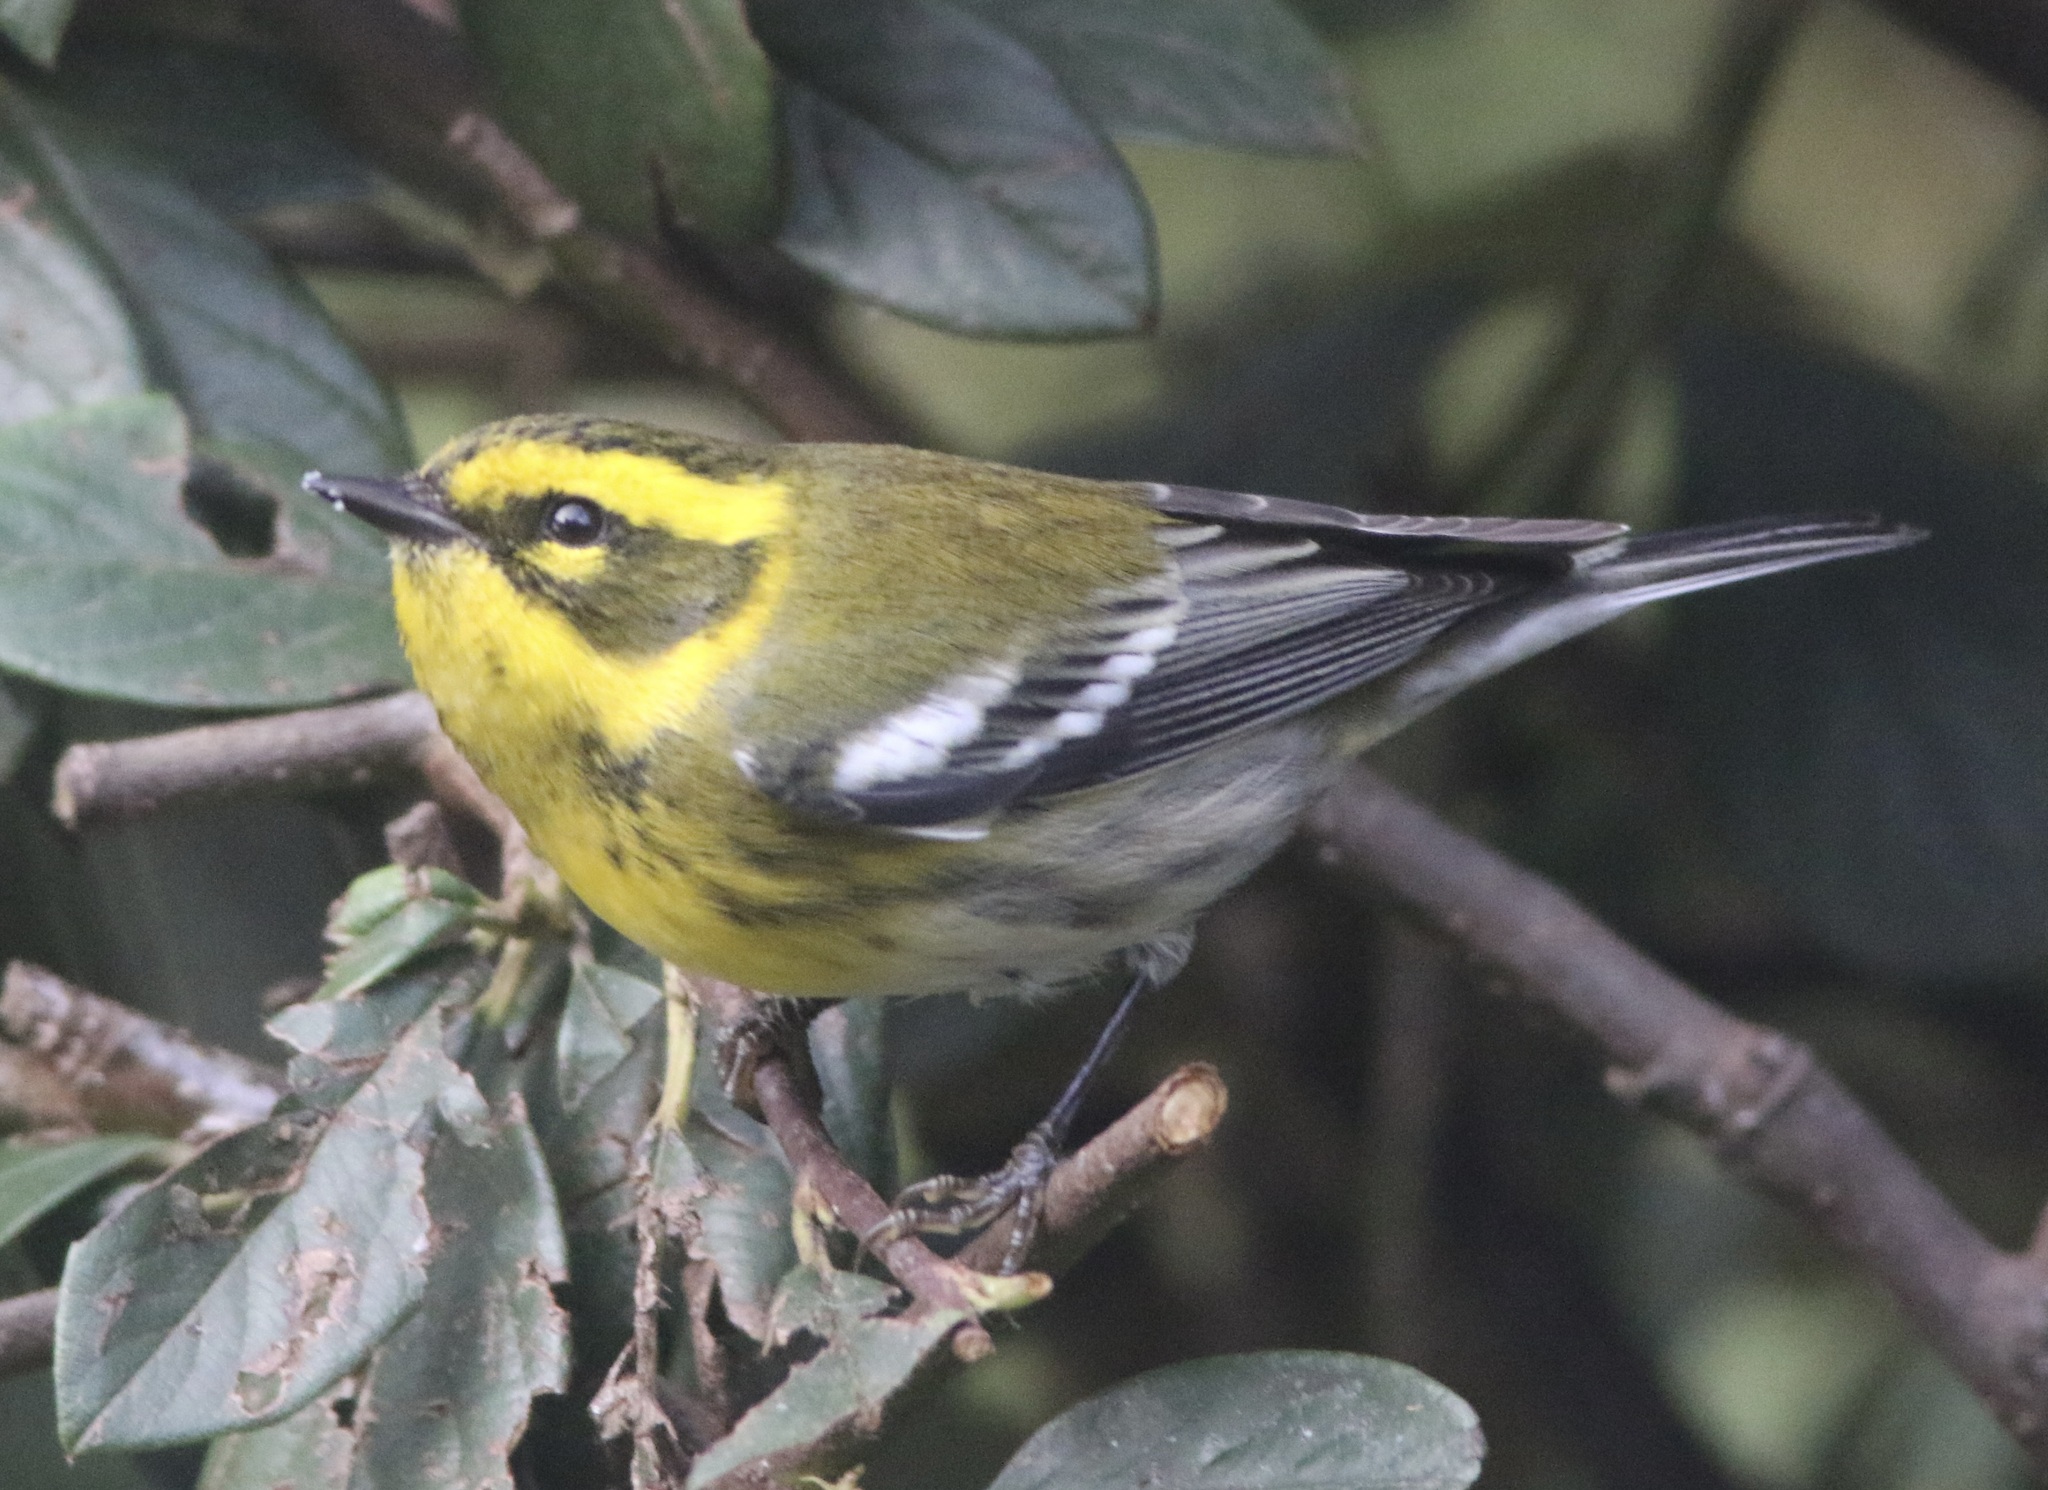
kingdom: Animalia
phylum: Chordata
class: Aves
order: Passeriformes
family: Parulidae
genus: Setophaga
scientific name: Setophaga townsendi
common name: Townsend's warbler
